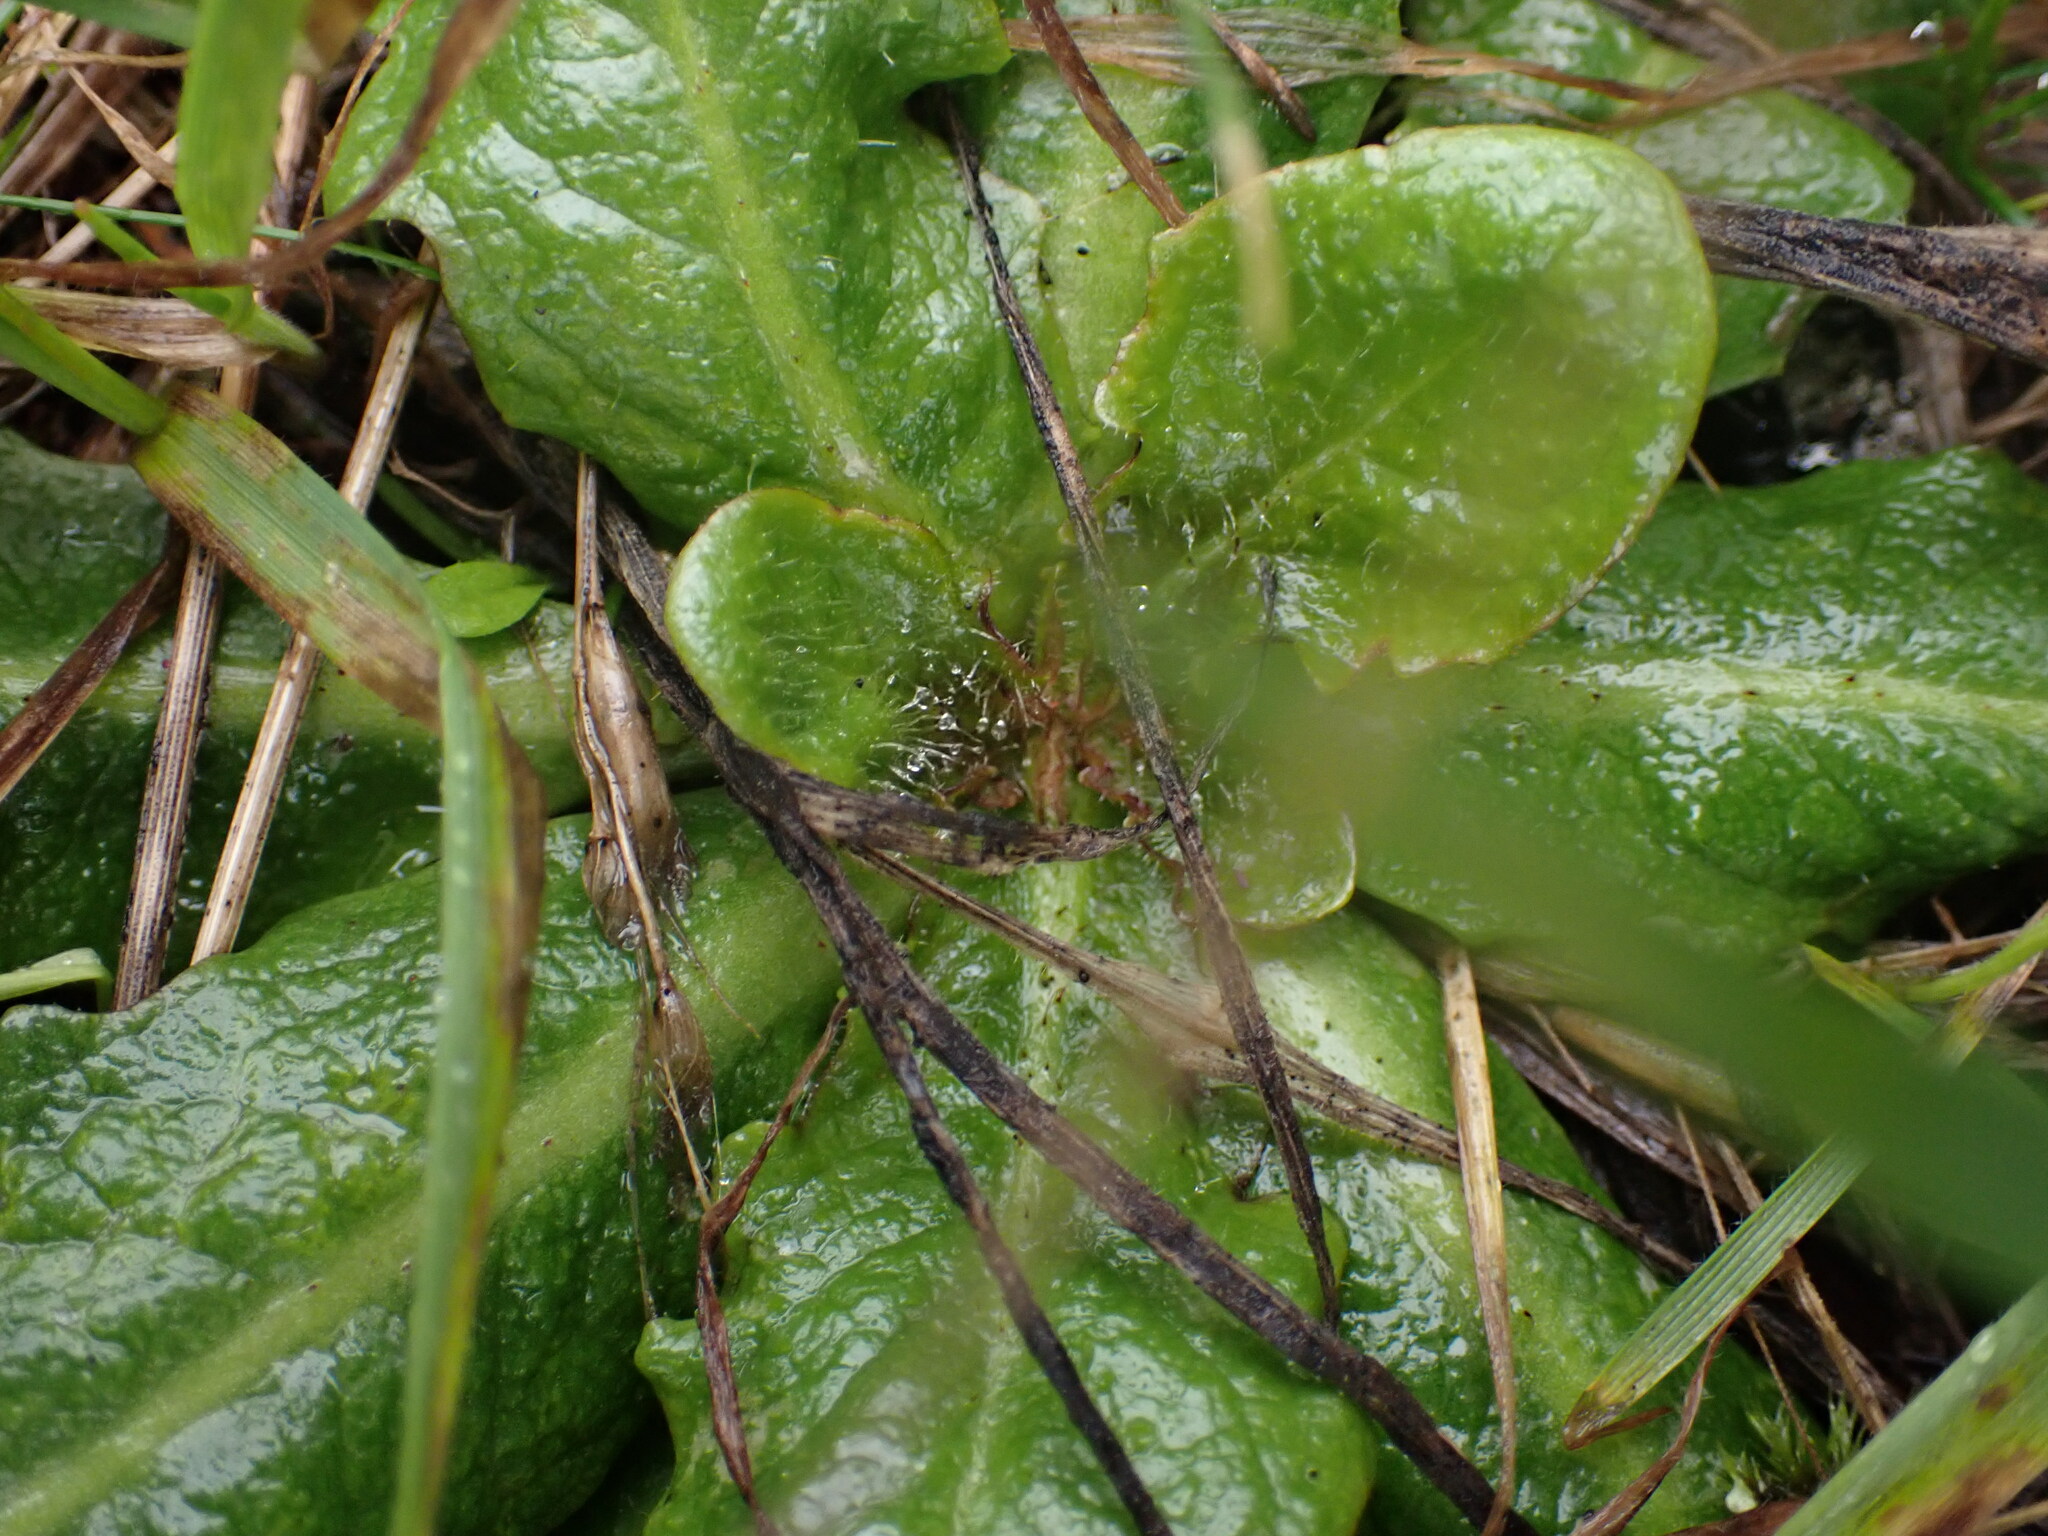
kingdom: Plantae
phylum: Tracheophyta
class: Magnoliopsida
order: Asterales
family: Asteraceae
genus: Hypochaeris
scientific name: Hypochaeris radicata
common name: Flatweed
